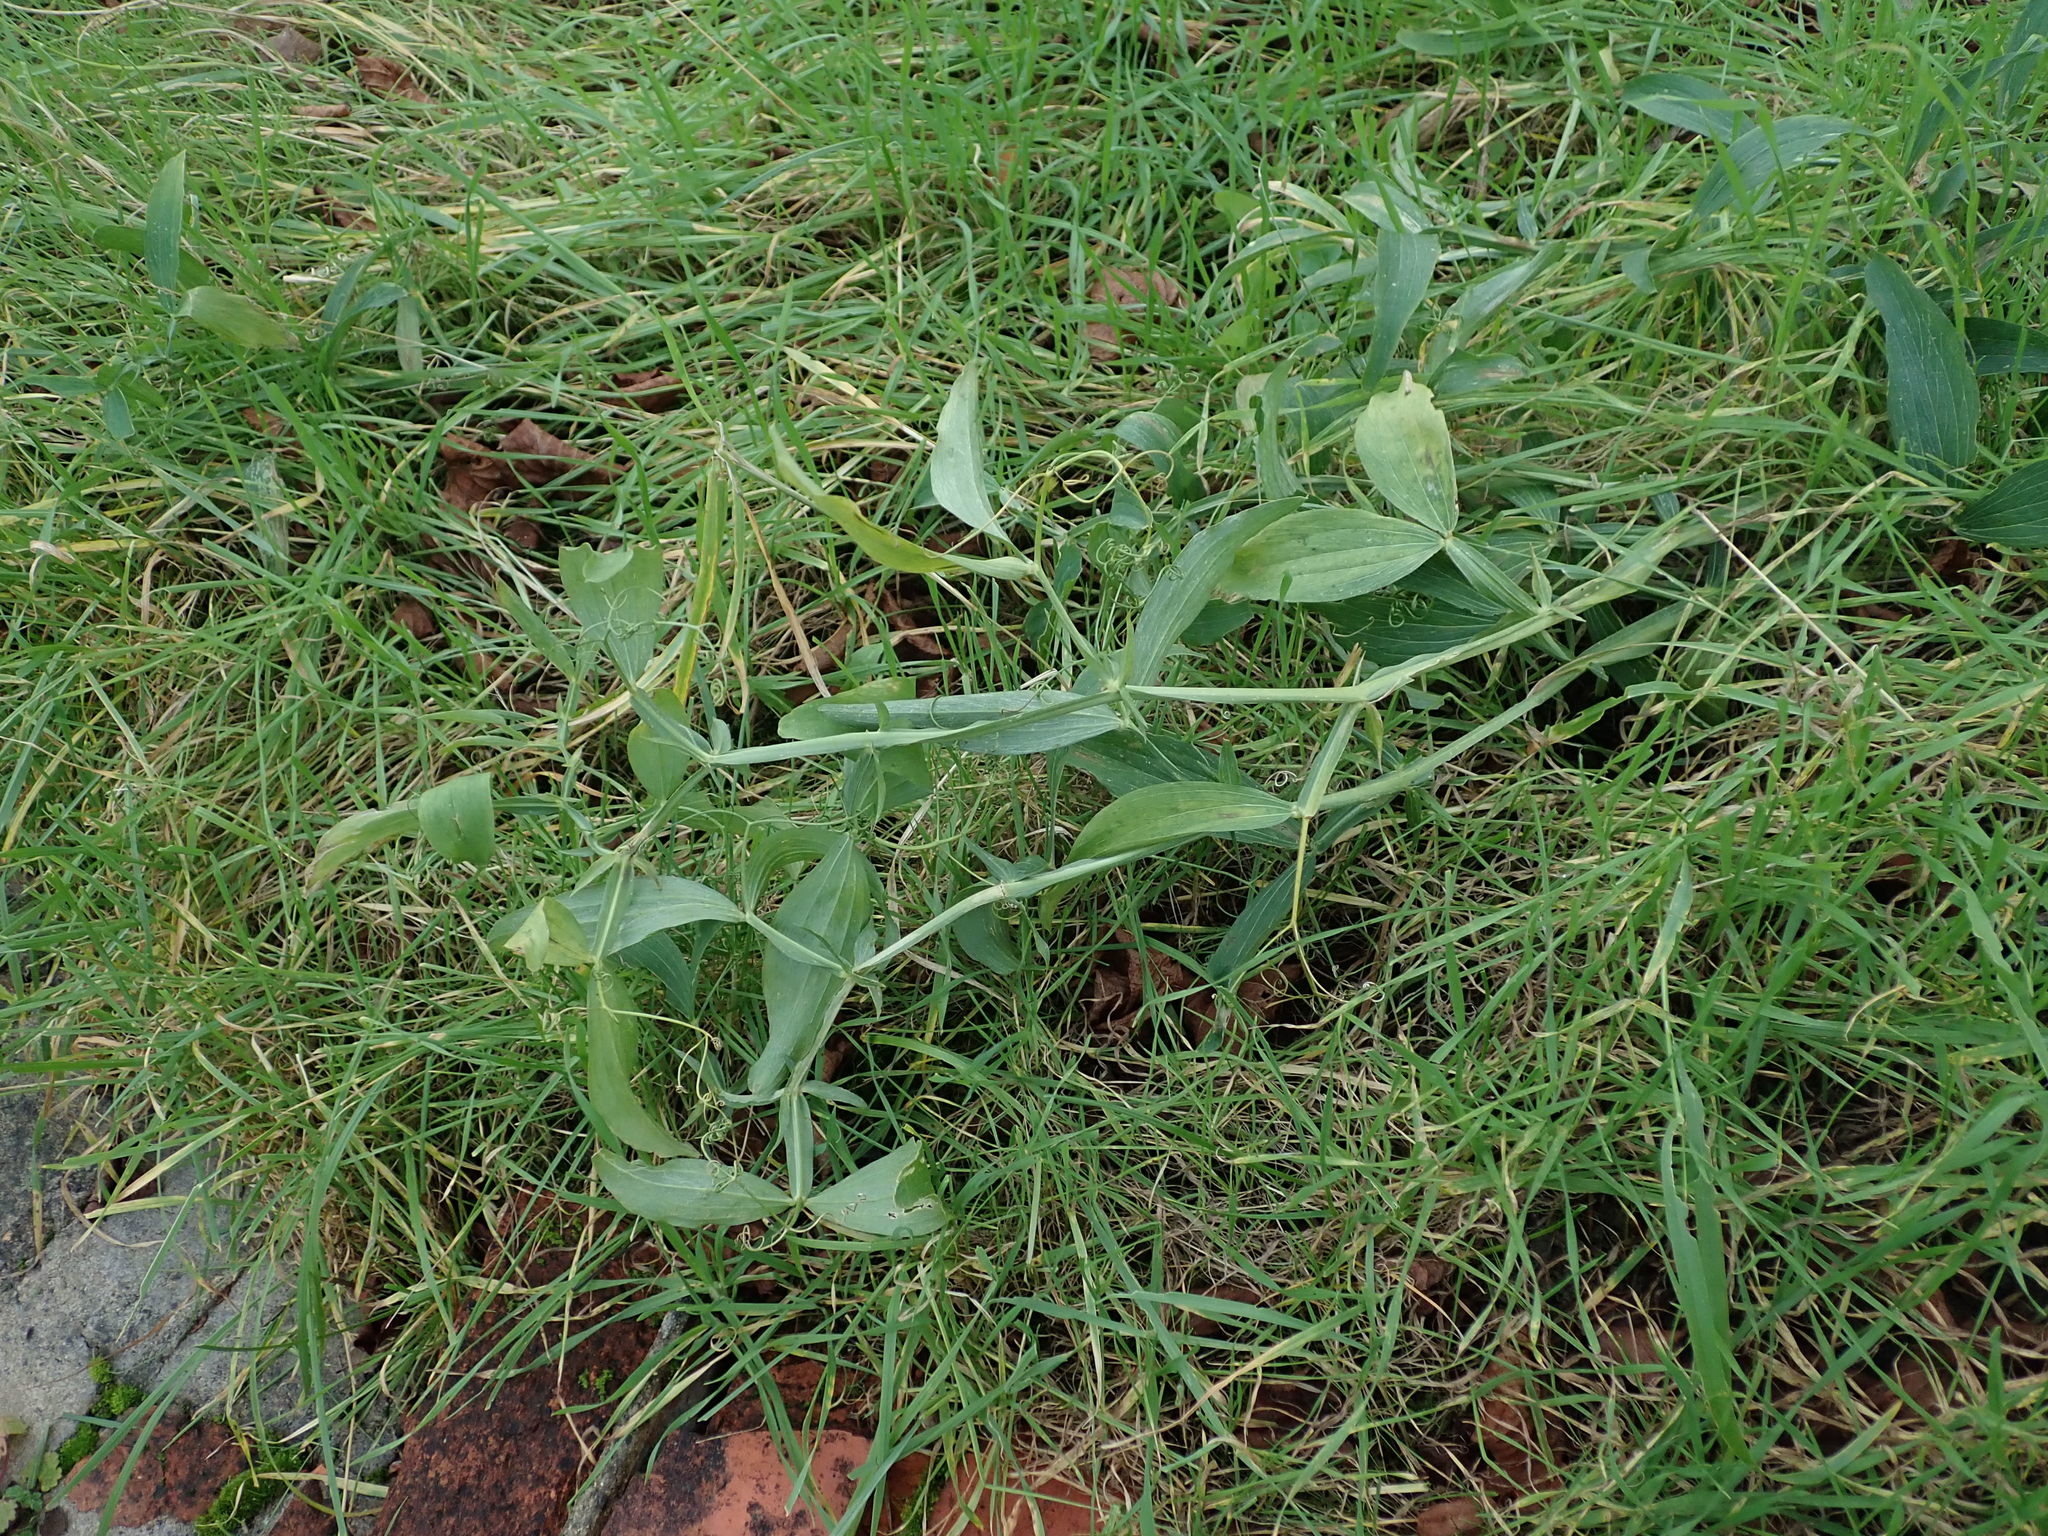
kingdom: Plantae
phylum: Tracheophyta
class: Magnoliopsida
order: Fabales
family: Fabaceae
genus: Lathyrus
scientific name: Lathyrus latifolius
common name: Perennial pea
